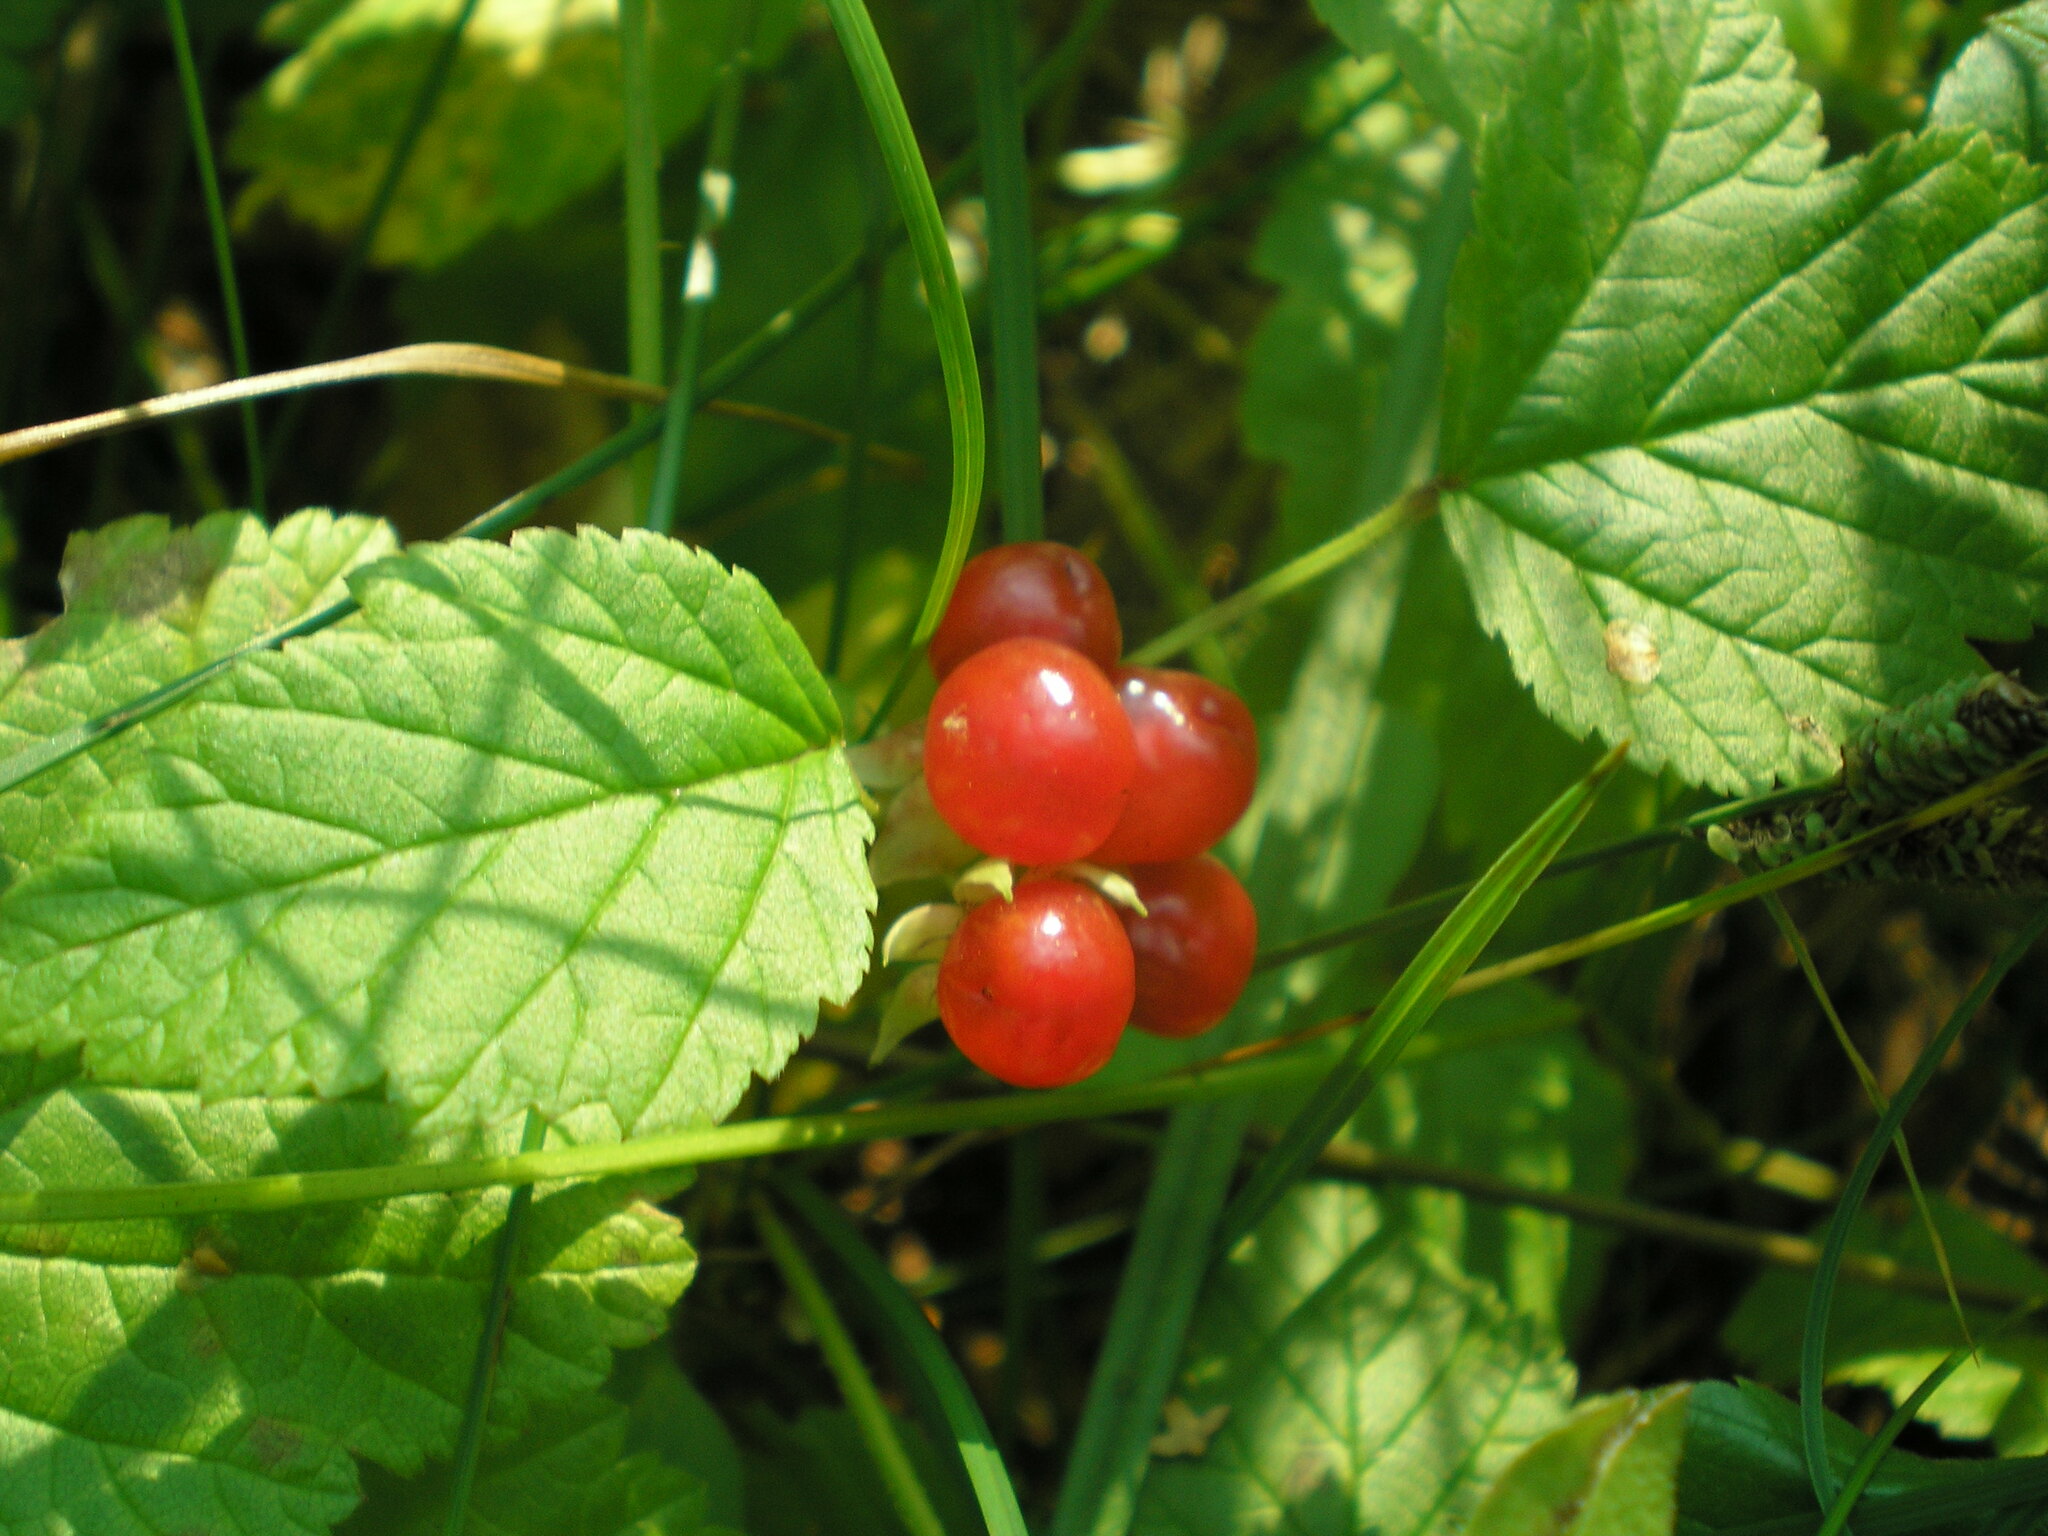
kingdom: Plantae
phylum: Tracheophyta
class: Magnoliopsida
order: Rosales
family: Rosaceae
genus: Rubus
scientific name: Rubus saxatilis
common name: Stone bramble
